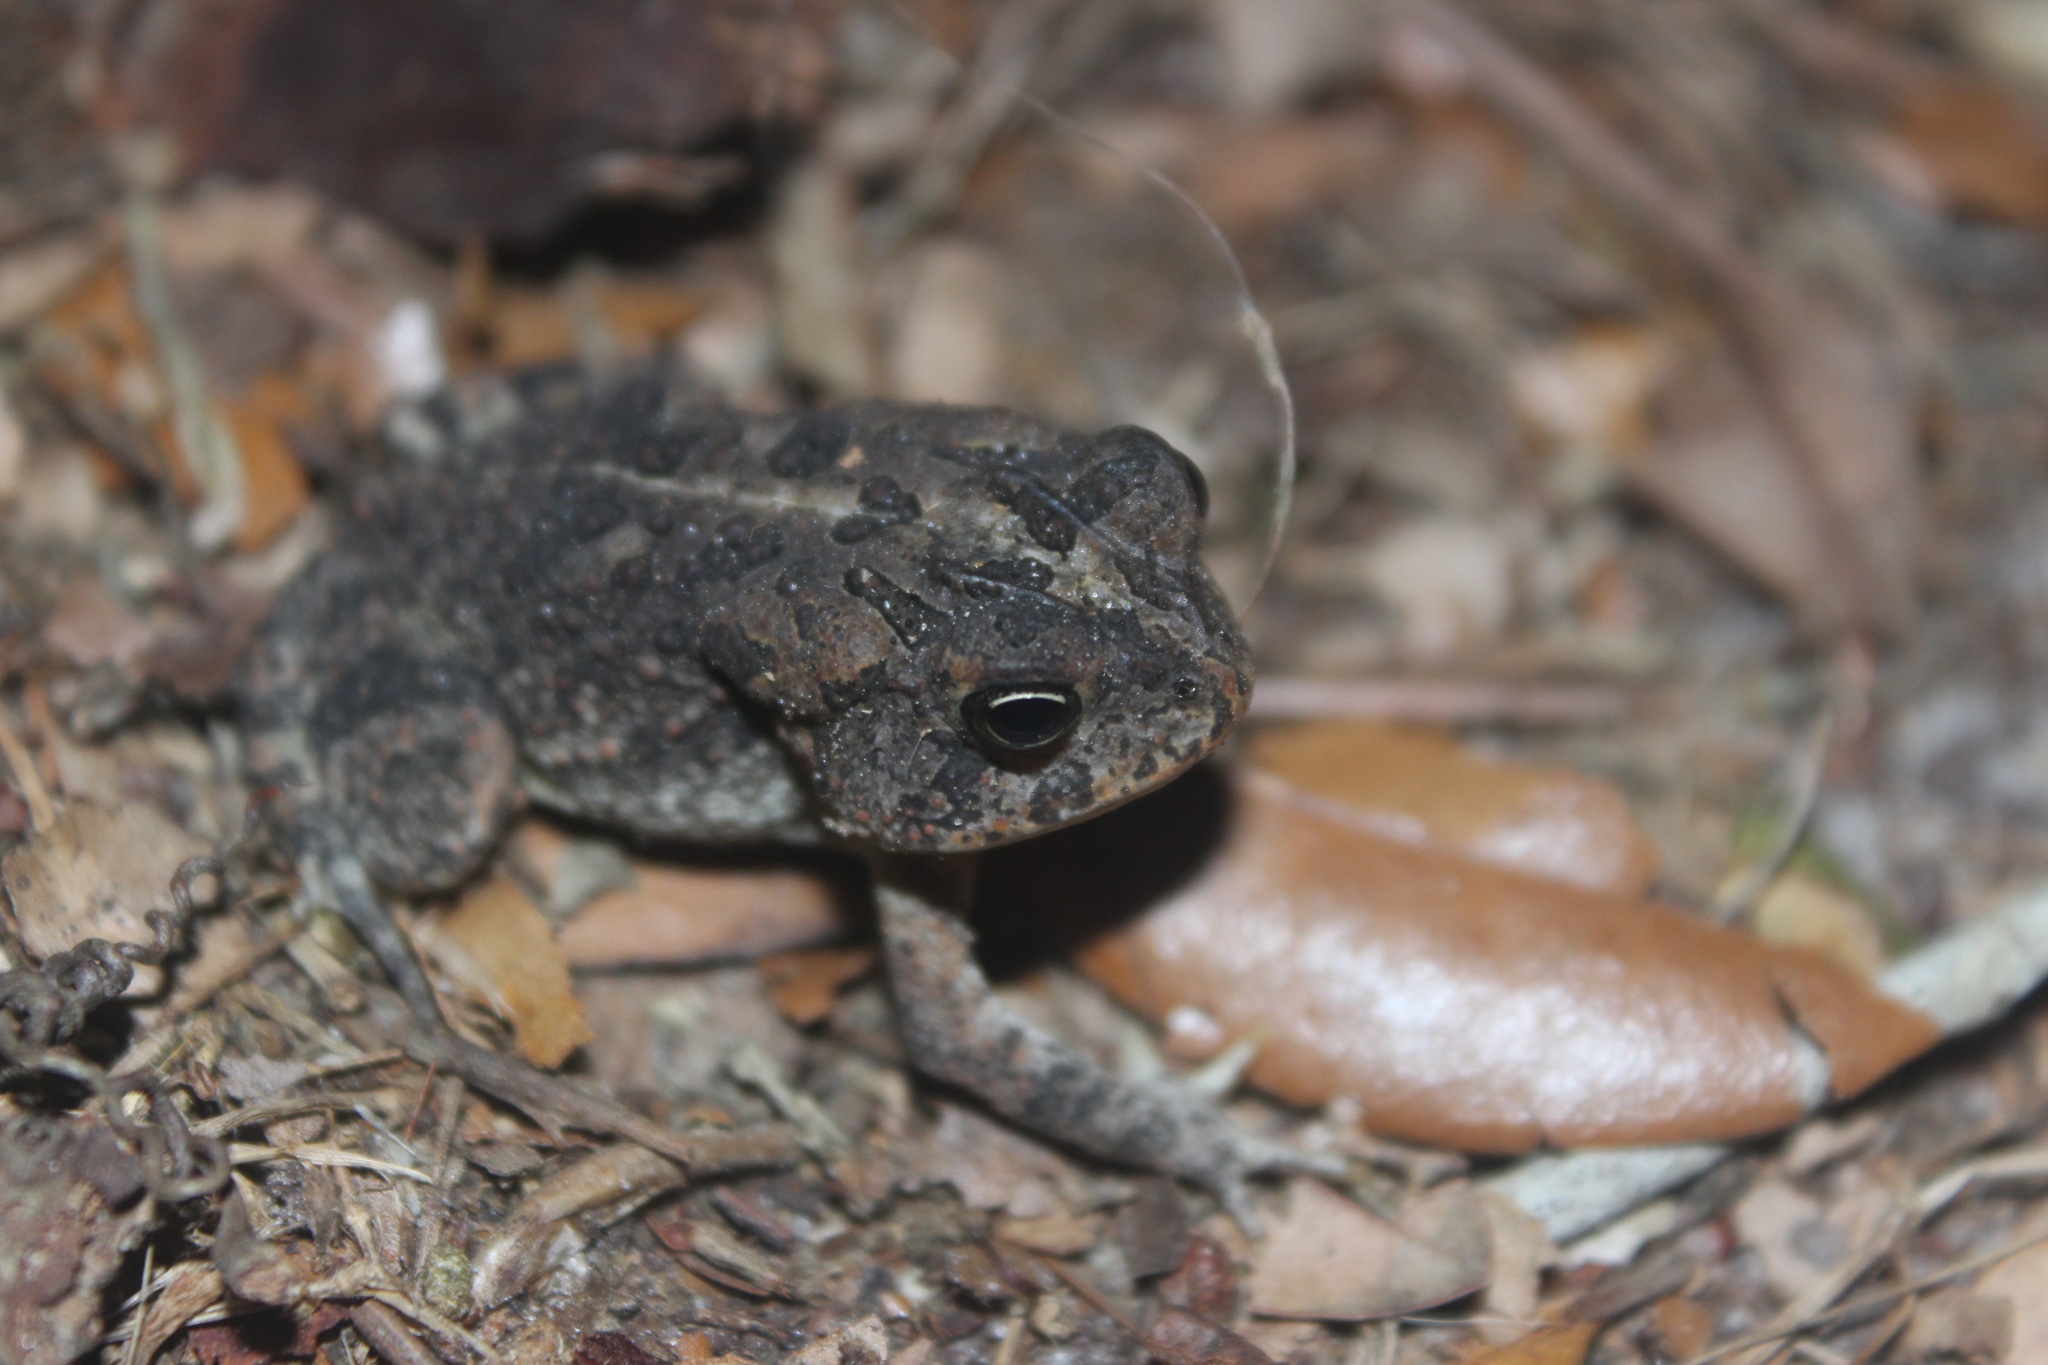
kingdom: Animalia
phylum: Chordata
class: Amphibia
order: Anura
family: Bufonidae
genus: Anaxyrus
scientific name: Anaxyrus terrestris
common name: Southern toad
